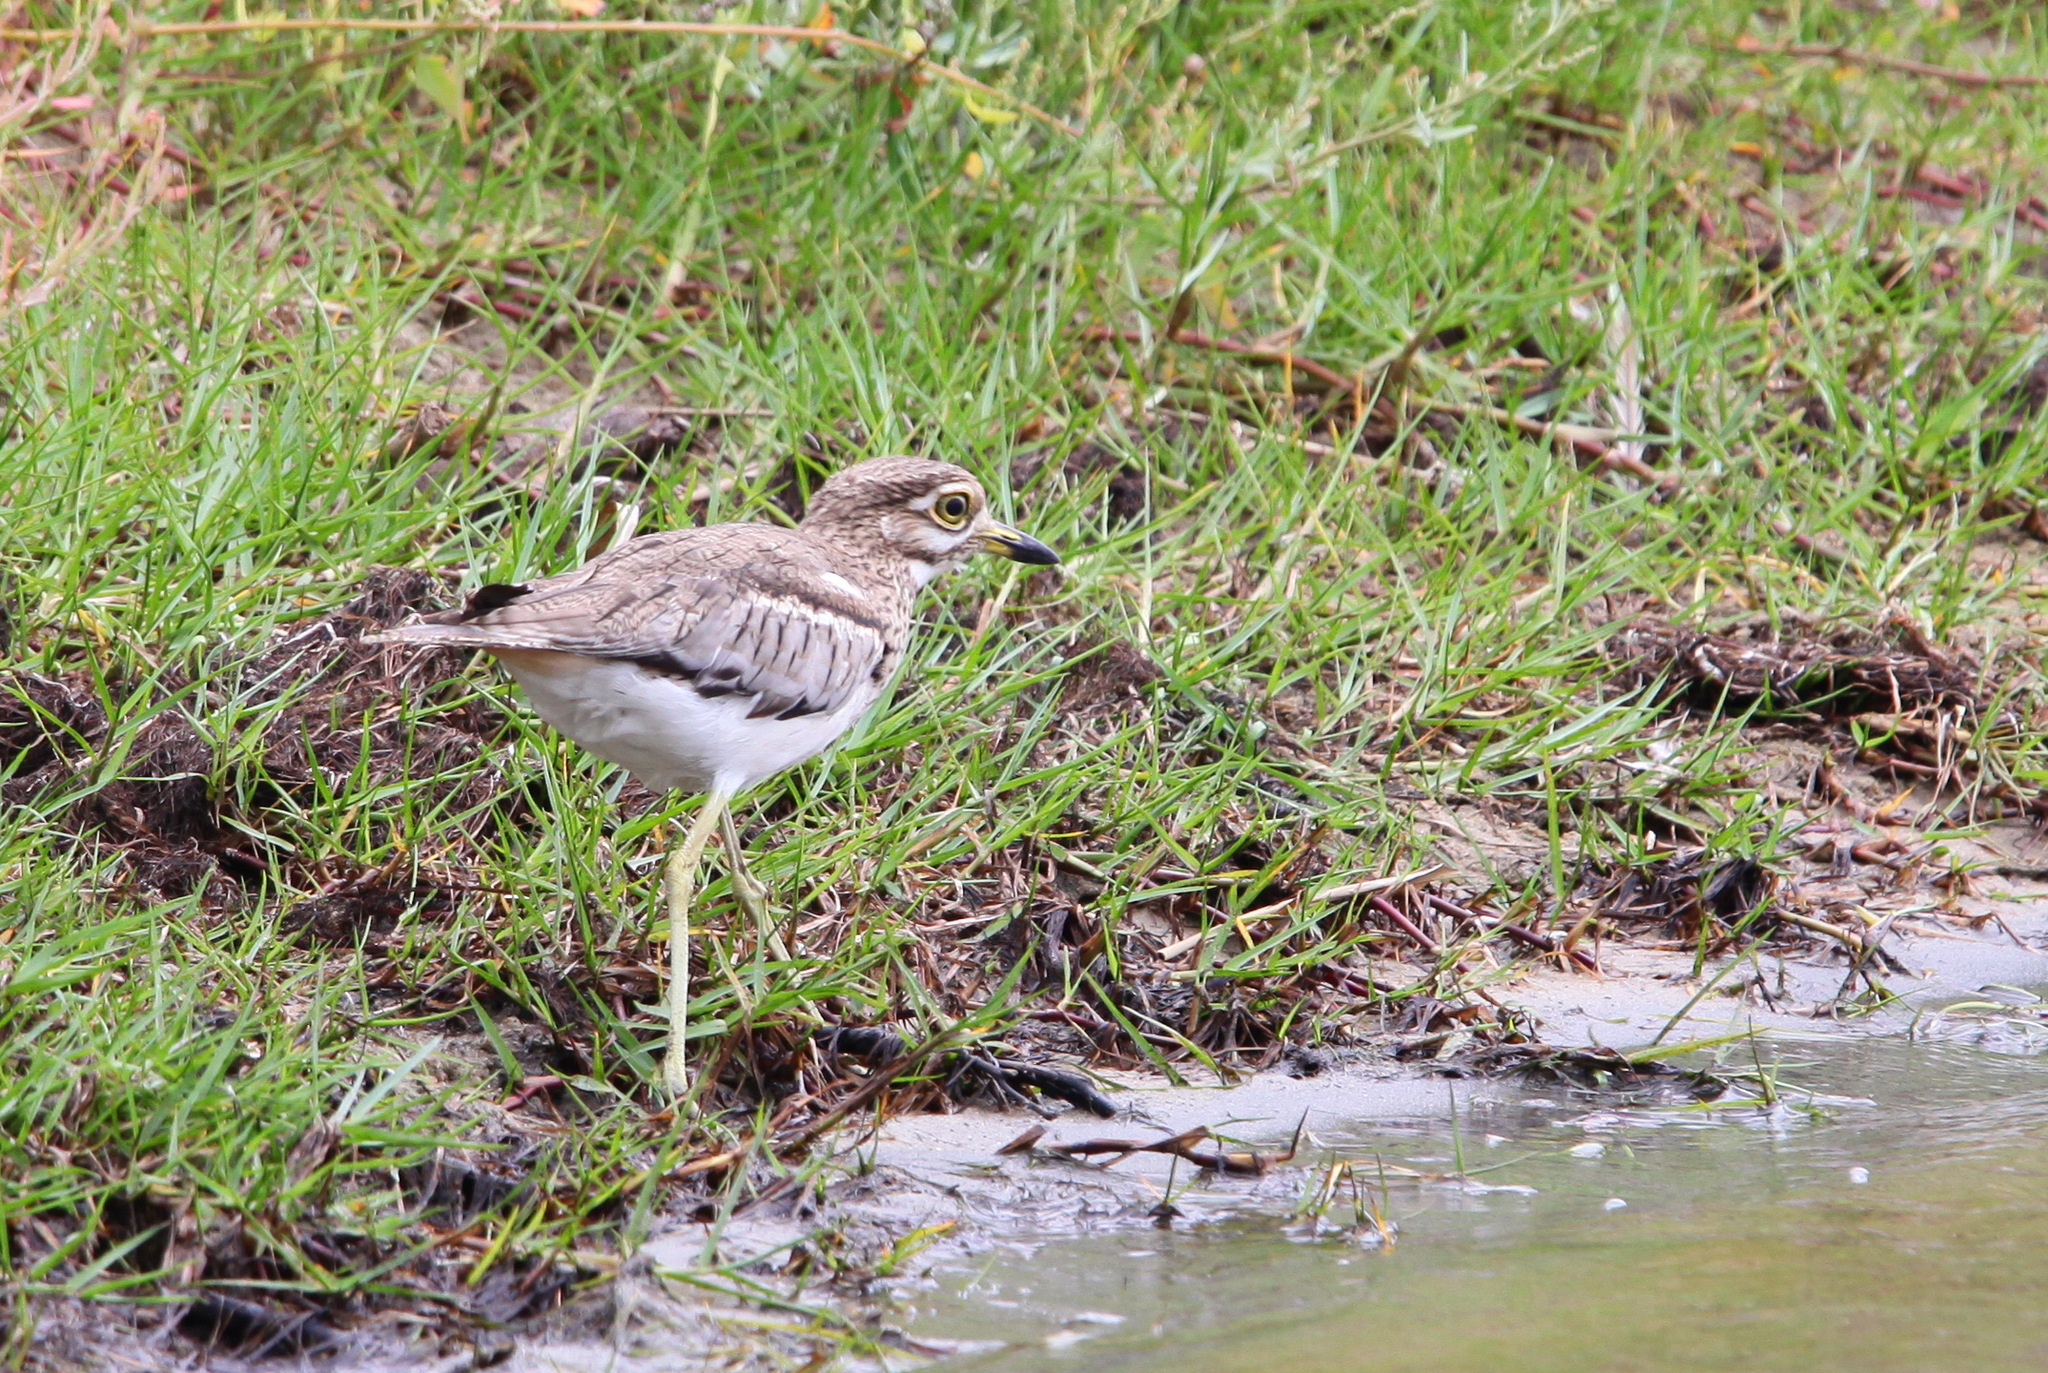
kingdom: Animalia
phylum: Chordata
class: Aves
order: Charadriiformes
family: Burhinidae
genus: Burhinus
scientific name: Burhinus vermiculatus
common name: Water thick-knee
